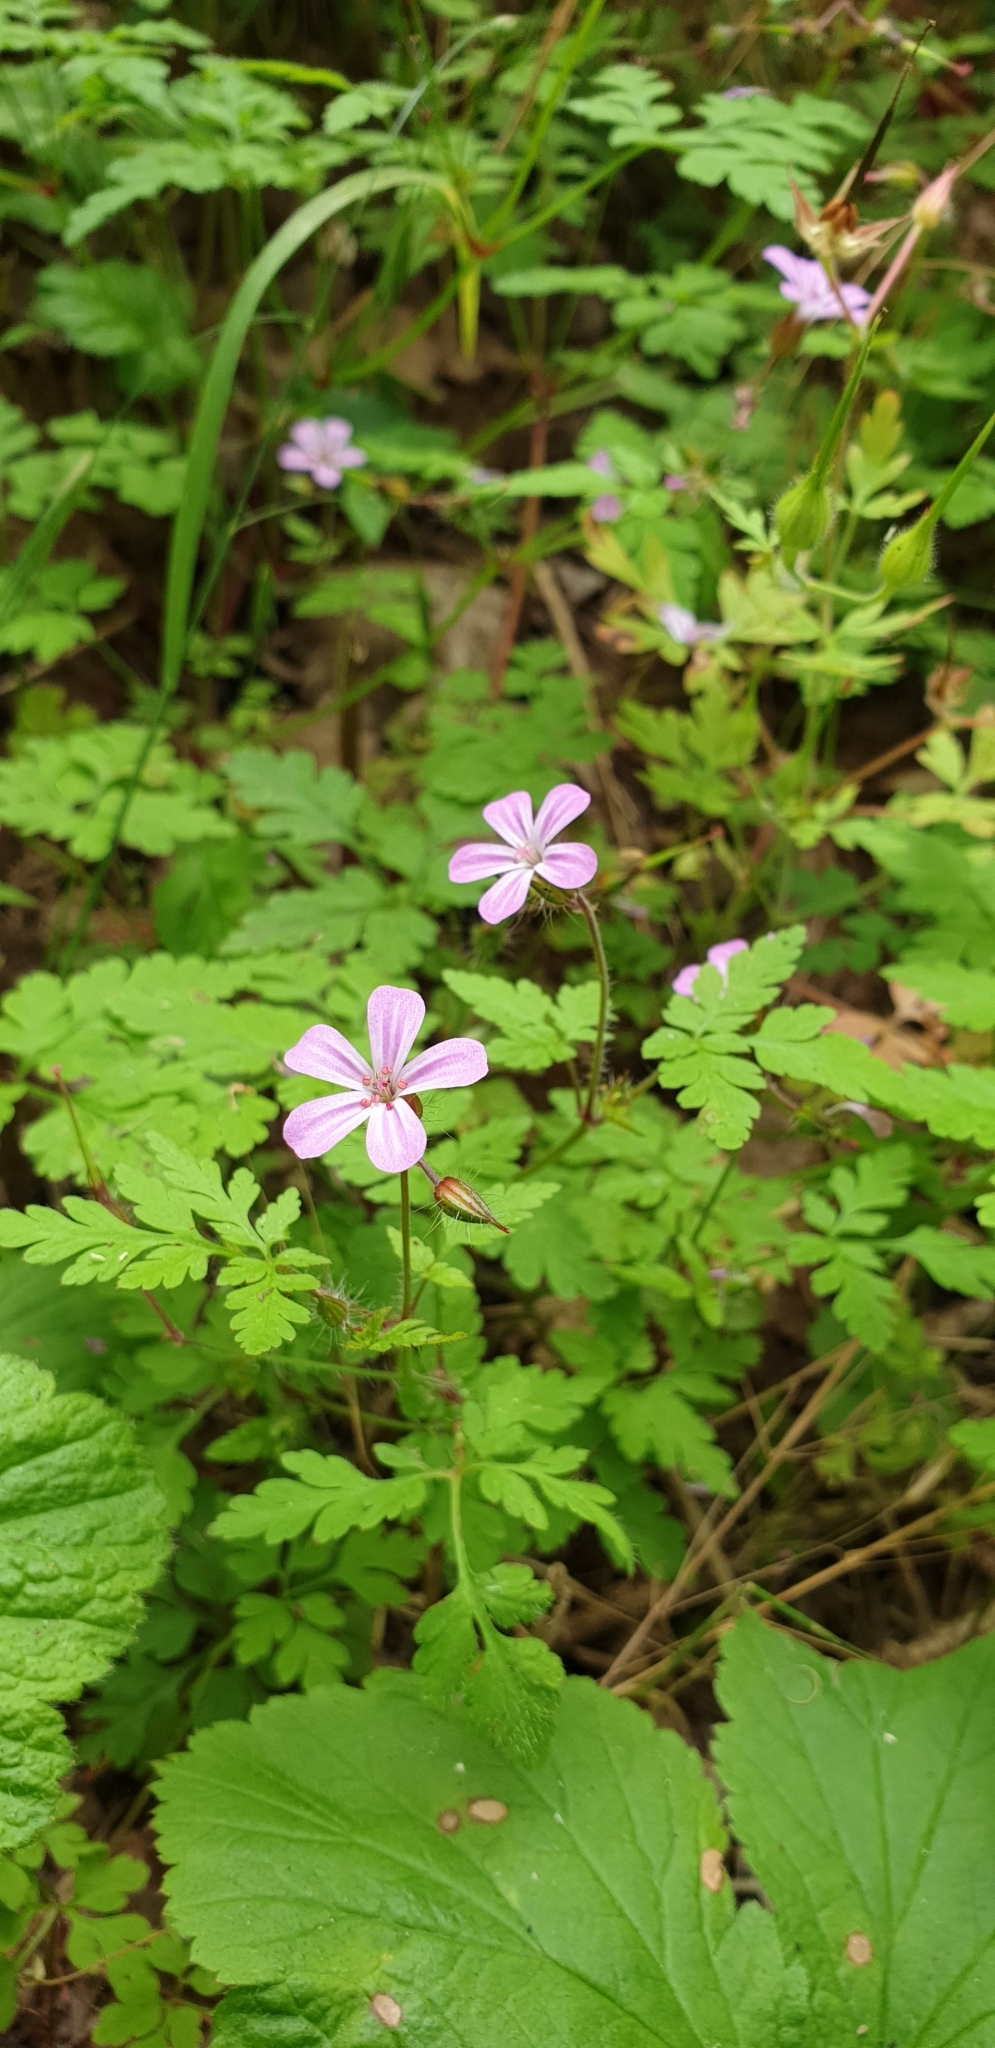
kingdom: Plantae
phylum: Tracheophyta
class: Magnoliopsida
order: Geraniales
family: Geraniaceae
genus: Geranium
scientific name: Geranium robertianum
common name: Herb-robert
